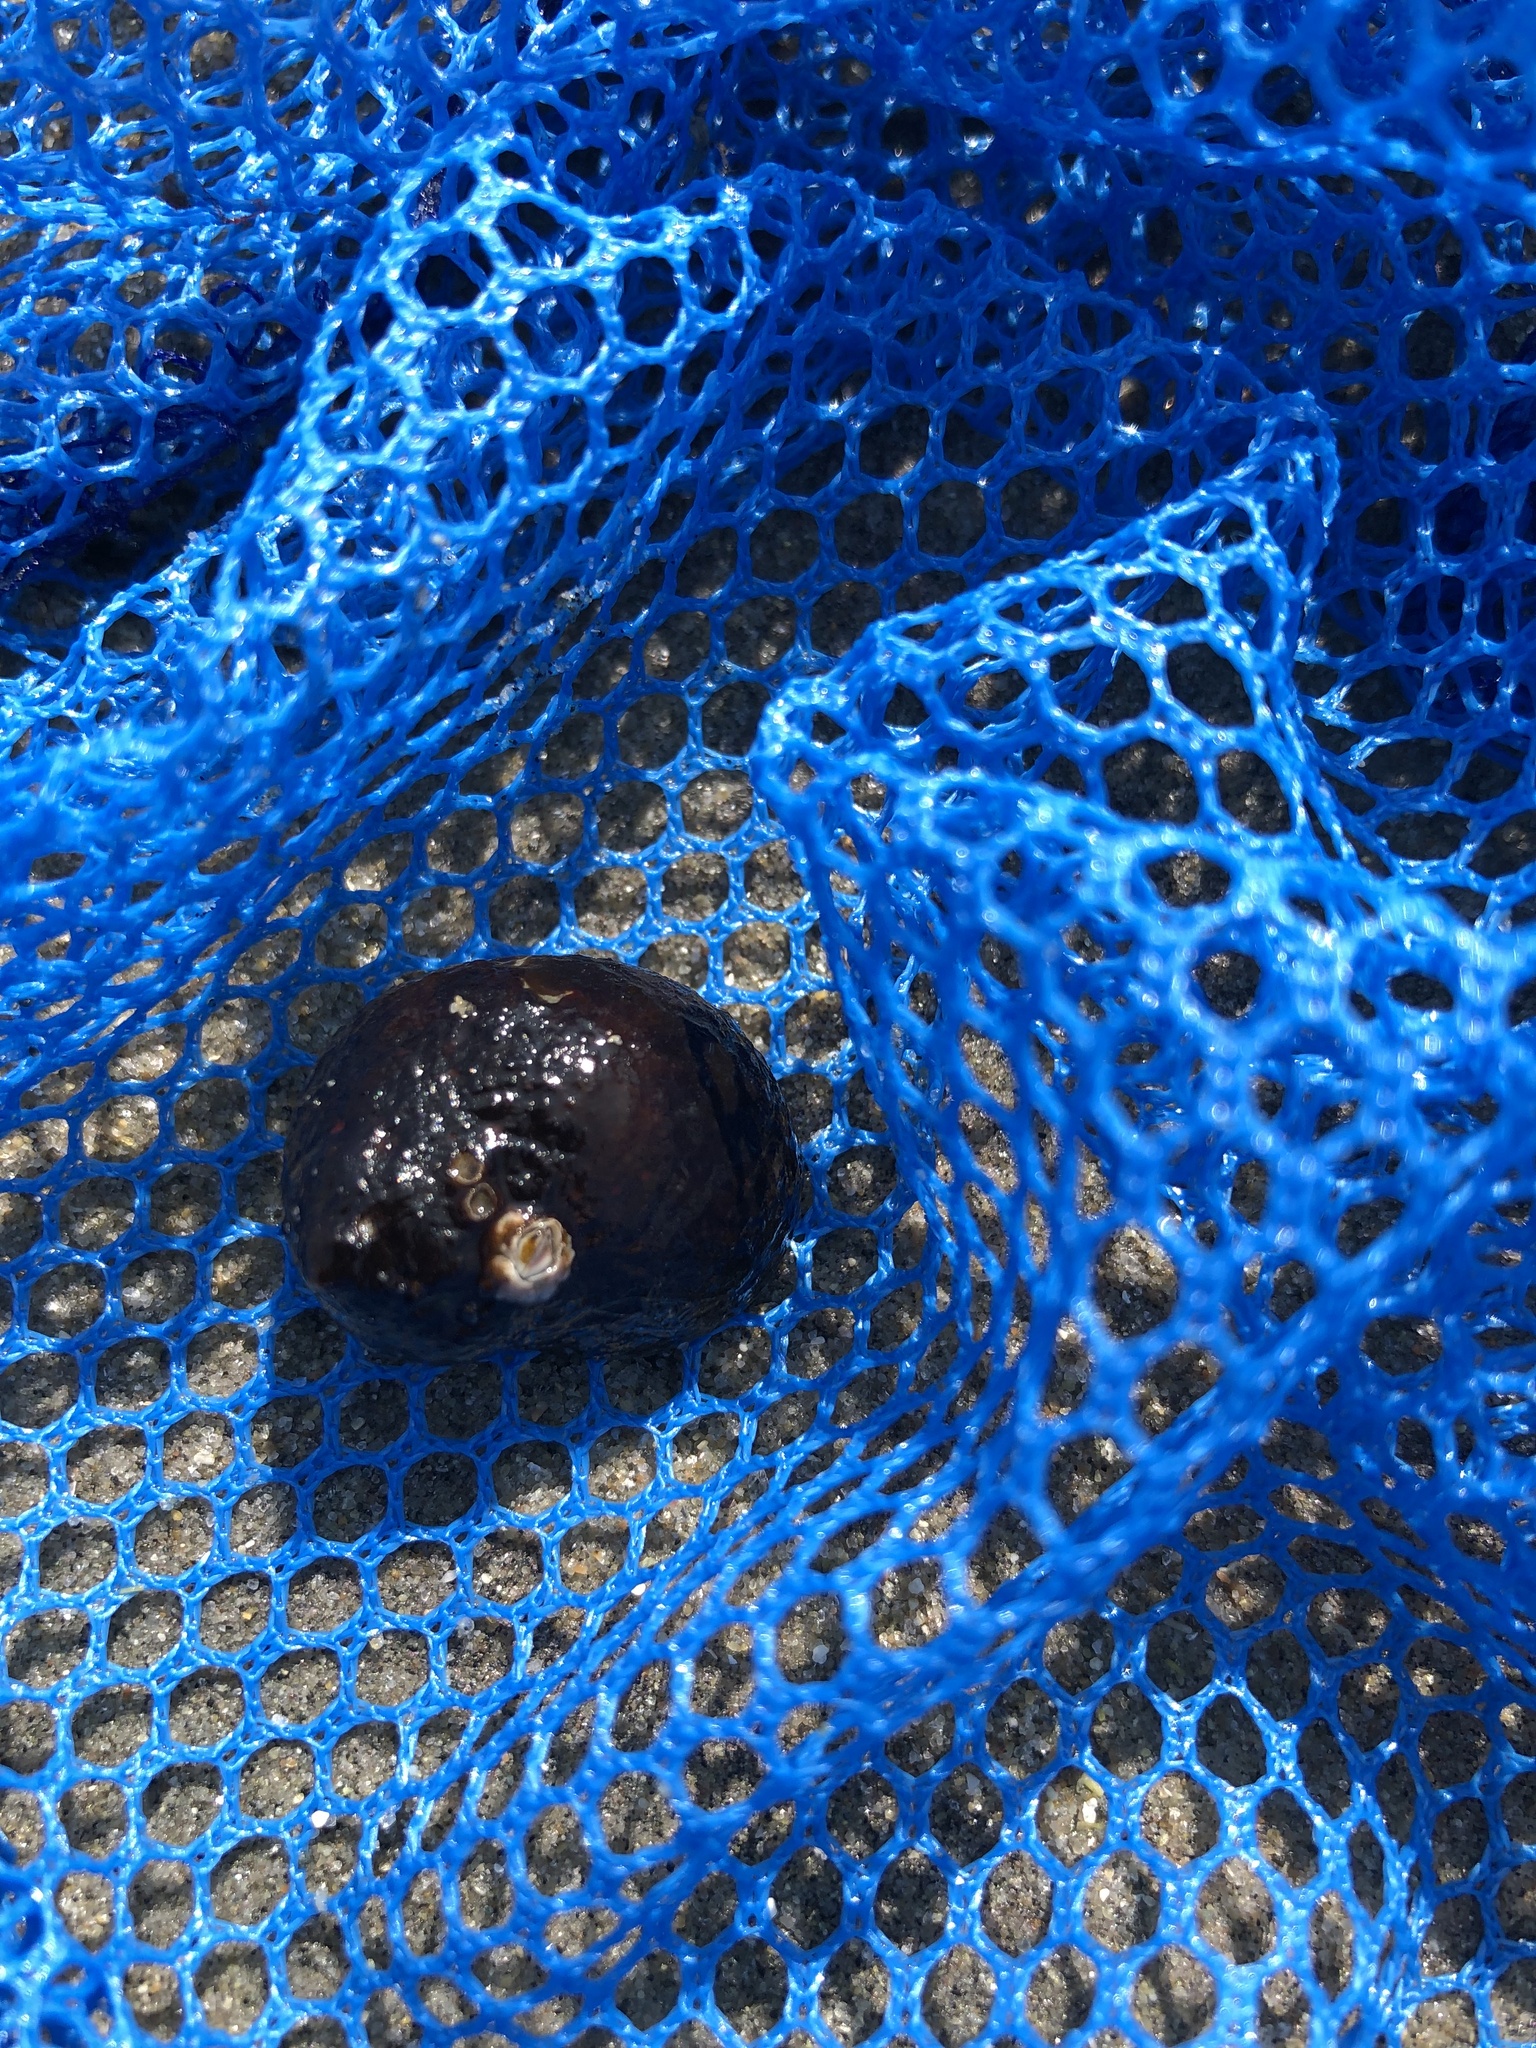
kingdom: Animalia
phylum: Mollusca
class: Gastropoda
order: Littorinimorpha
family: Littorinidae
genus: Littorina
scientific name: Littorina littorea
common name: Common periwinkle
